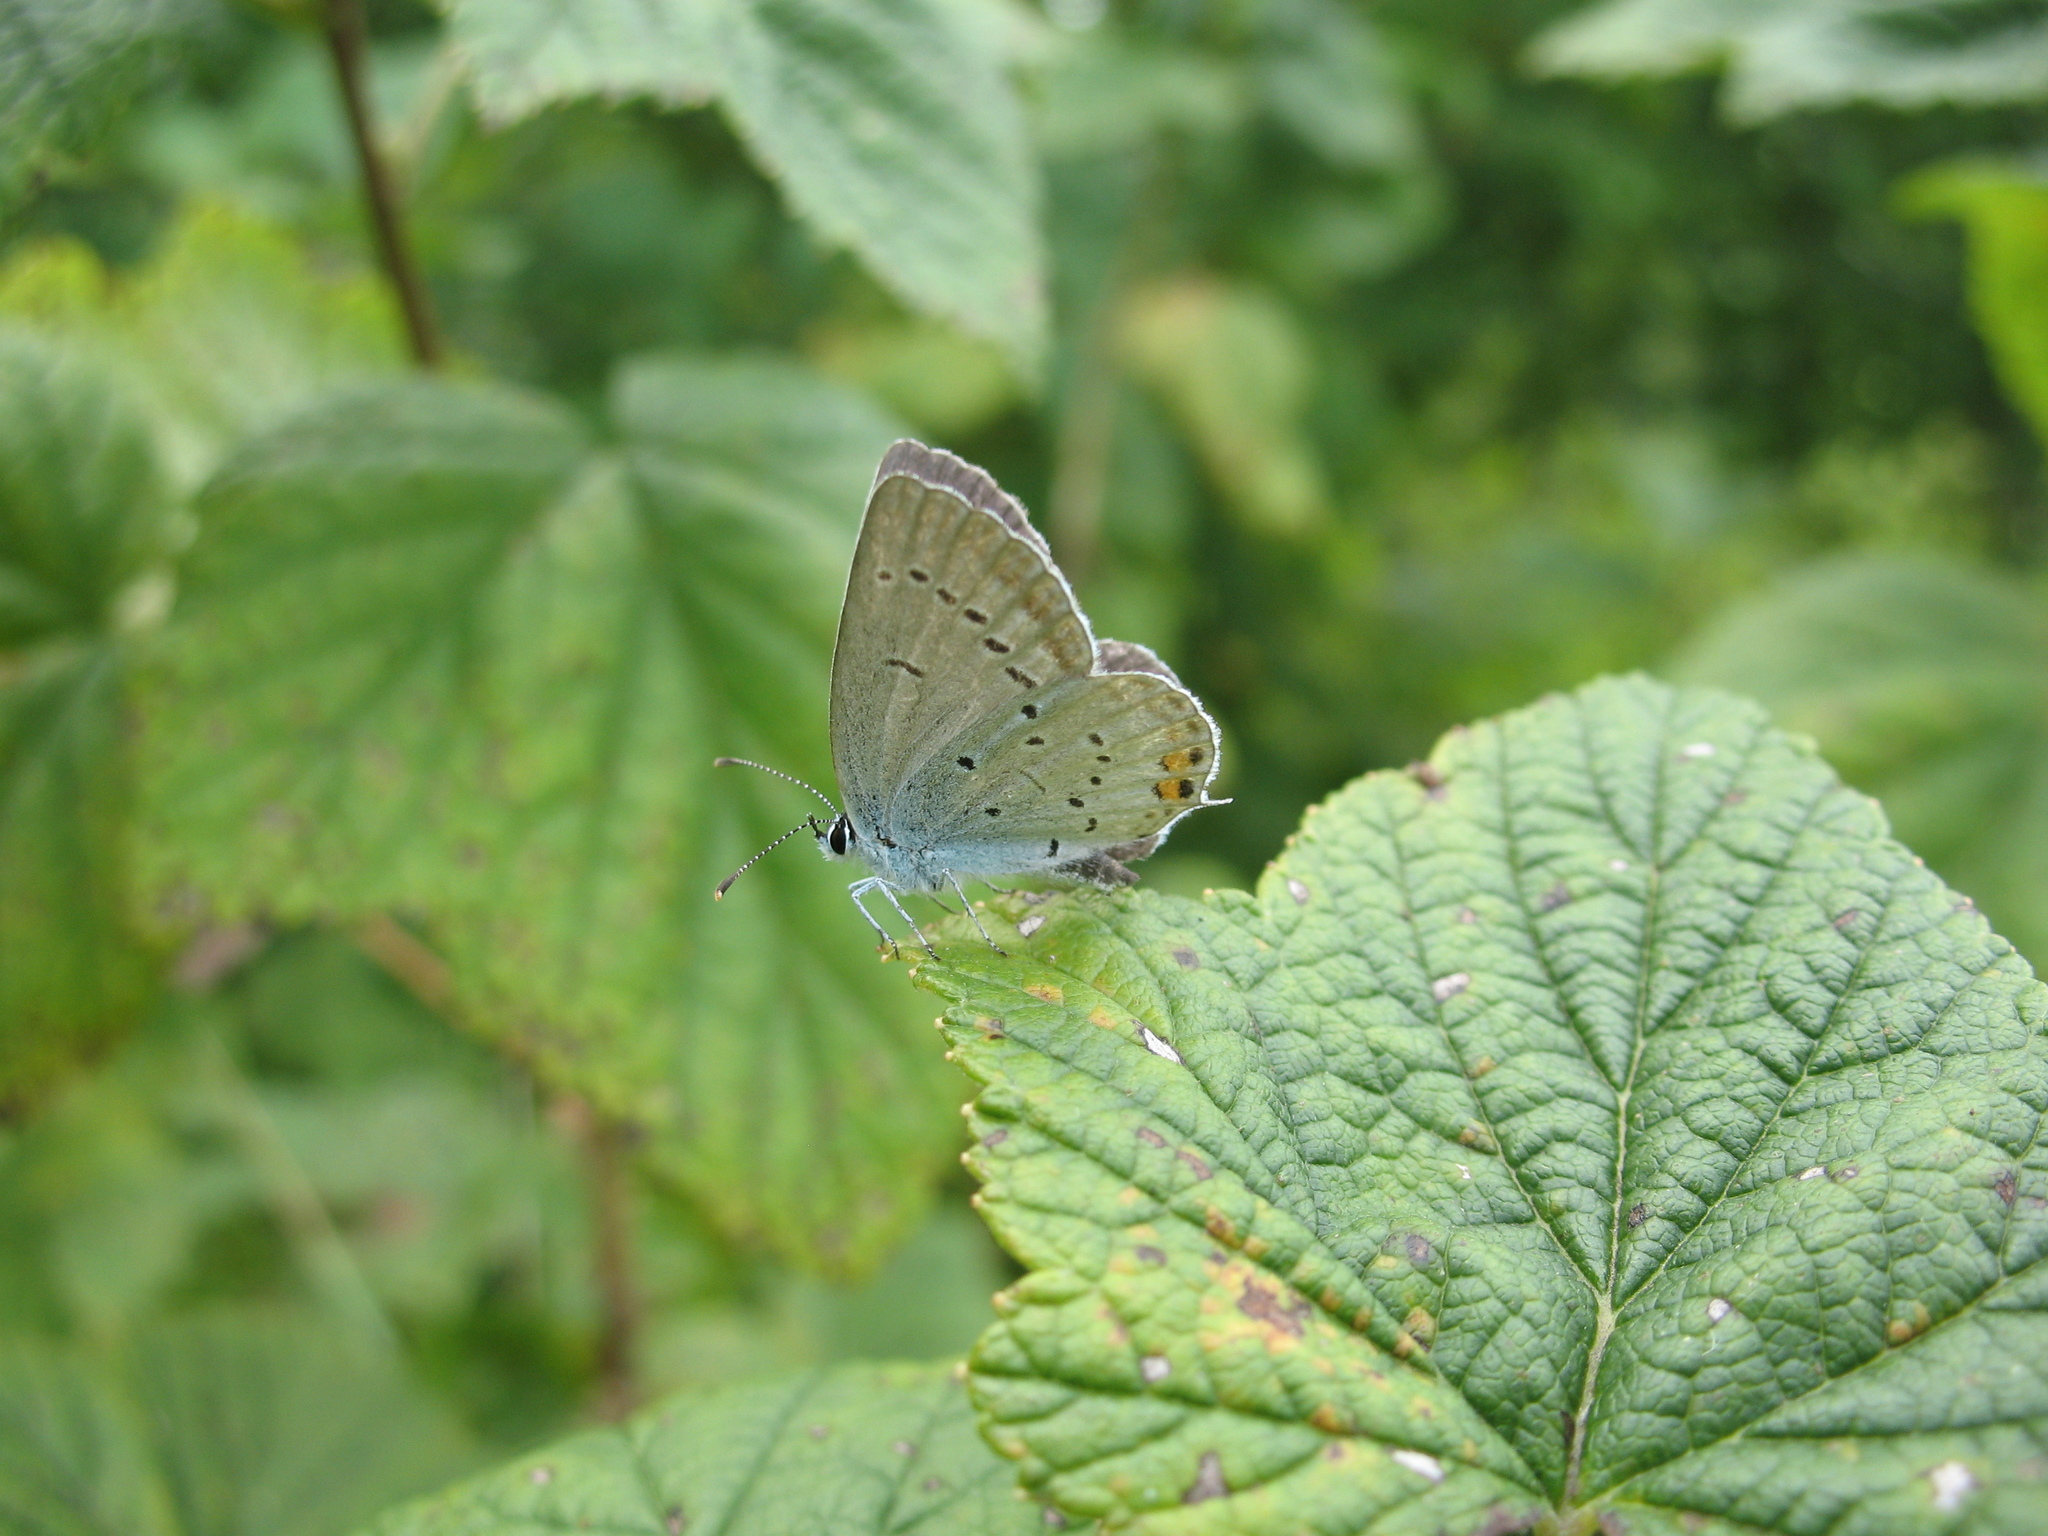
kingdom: Animalia
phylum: Arthropoda
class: Insecta
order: Lepidoptera
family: Lycaenidae
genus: Elkalyce
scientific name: Elkalyce argiades
